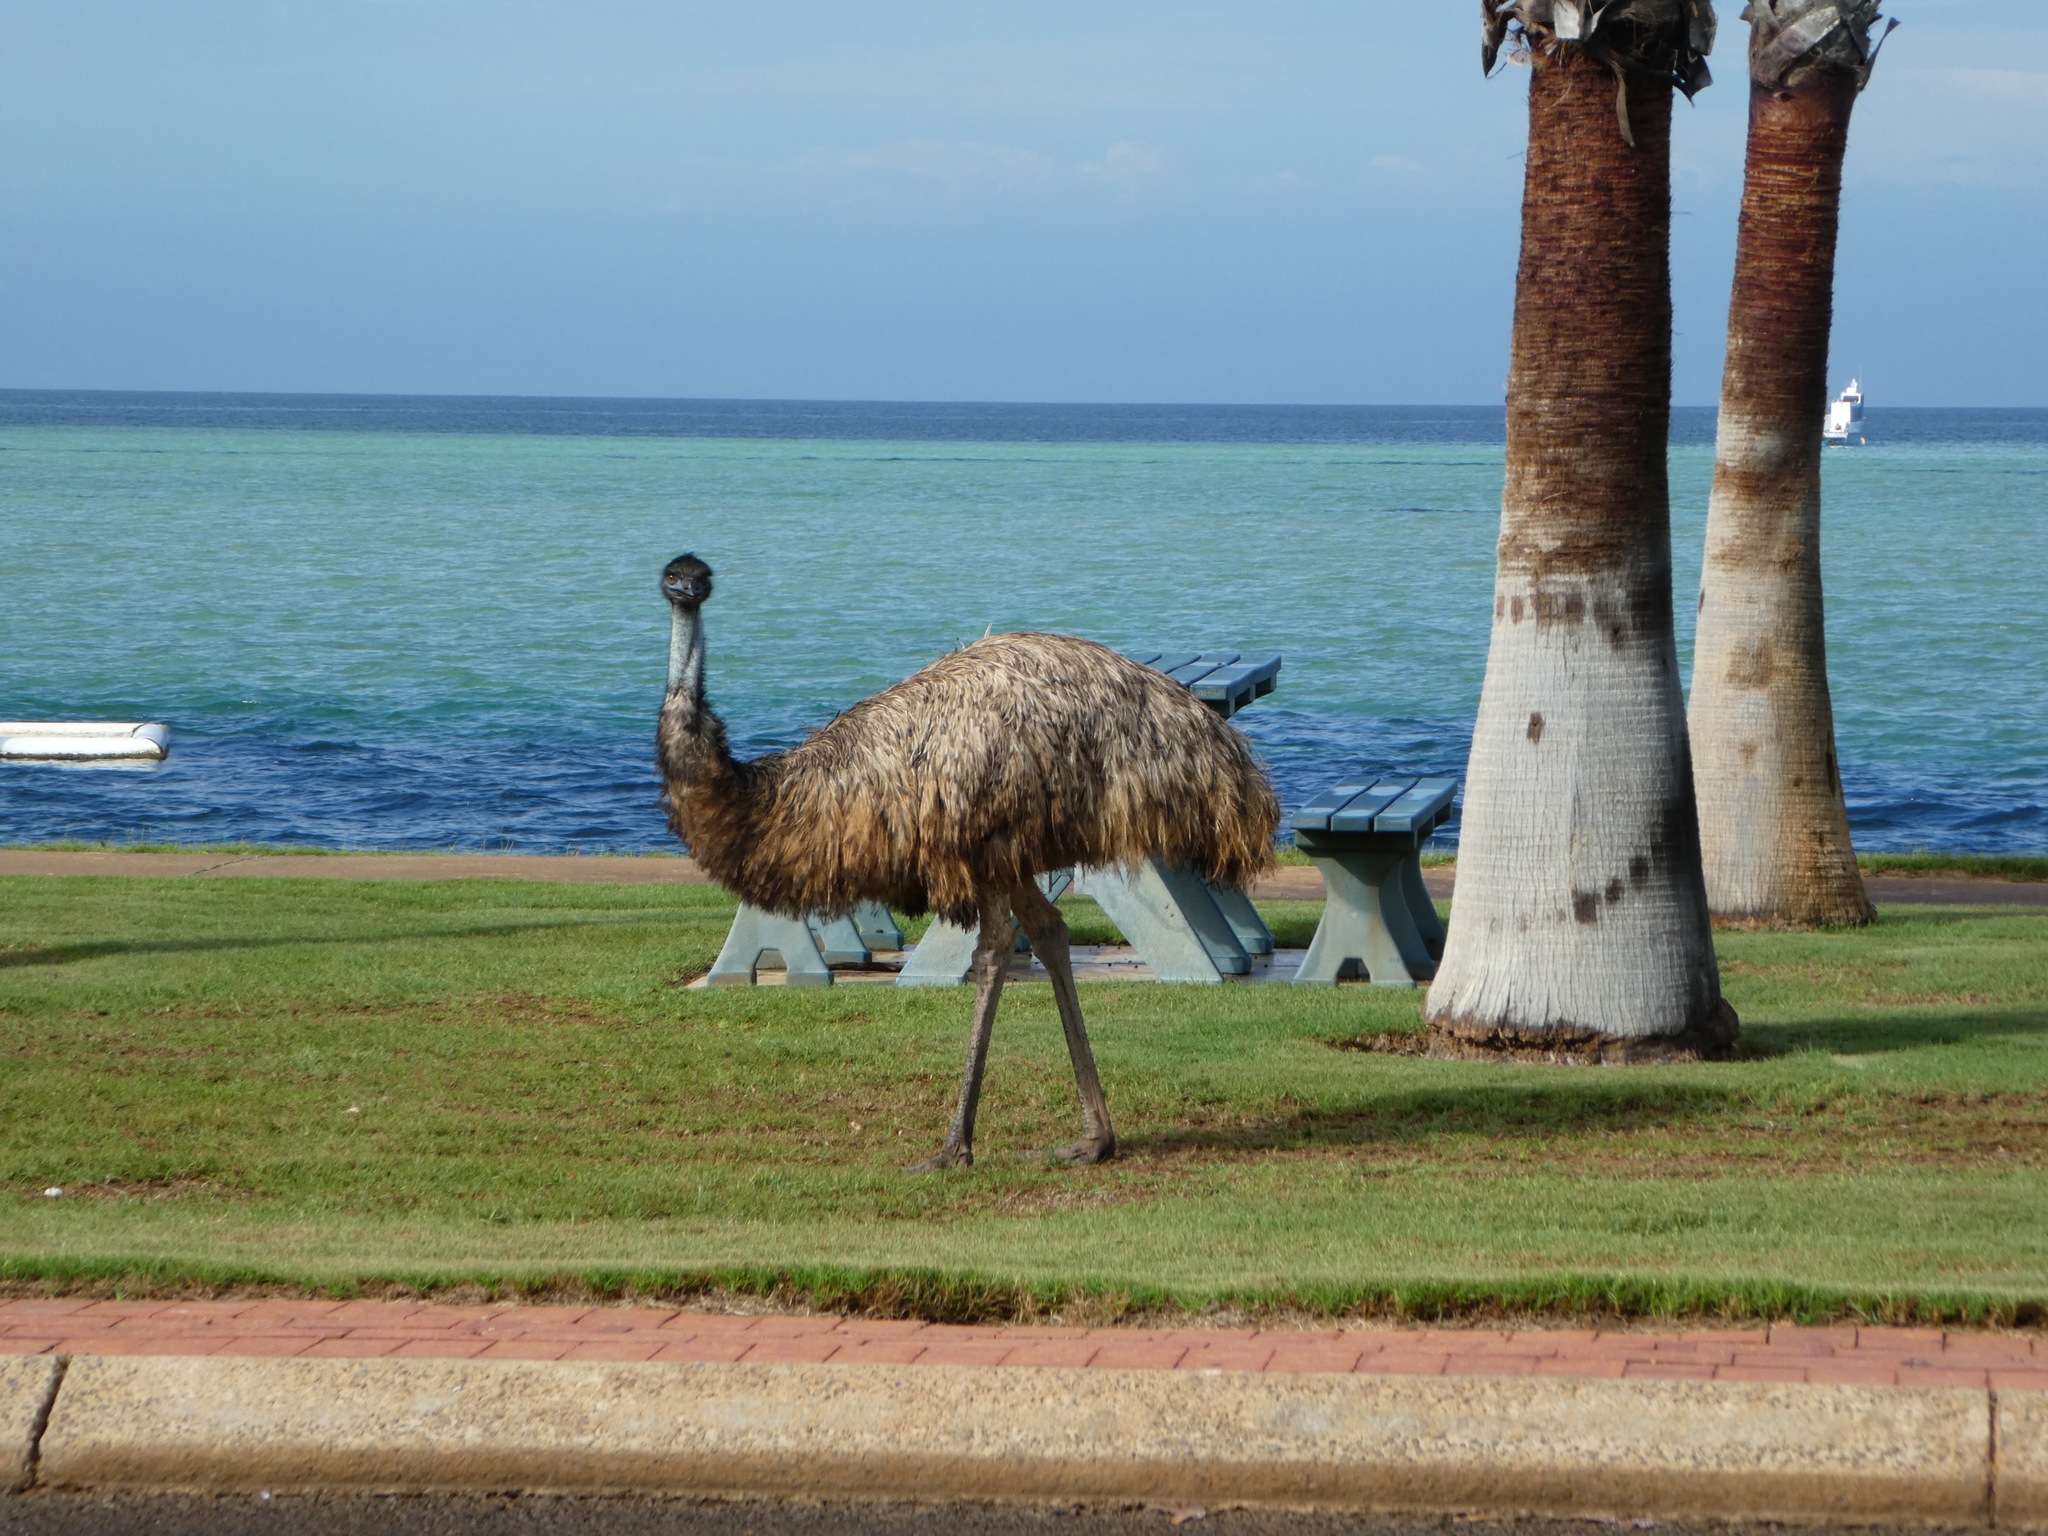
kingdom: Animalia
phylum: Chordata
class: Aves
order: Casuariiformes
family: Dromaiidae
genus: Dromaius
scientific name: Dromaius novaehollandiae
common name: Emu
